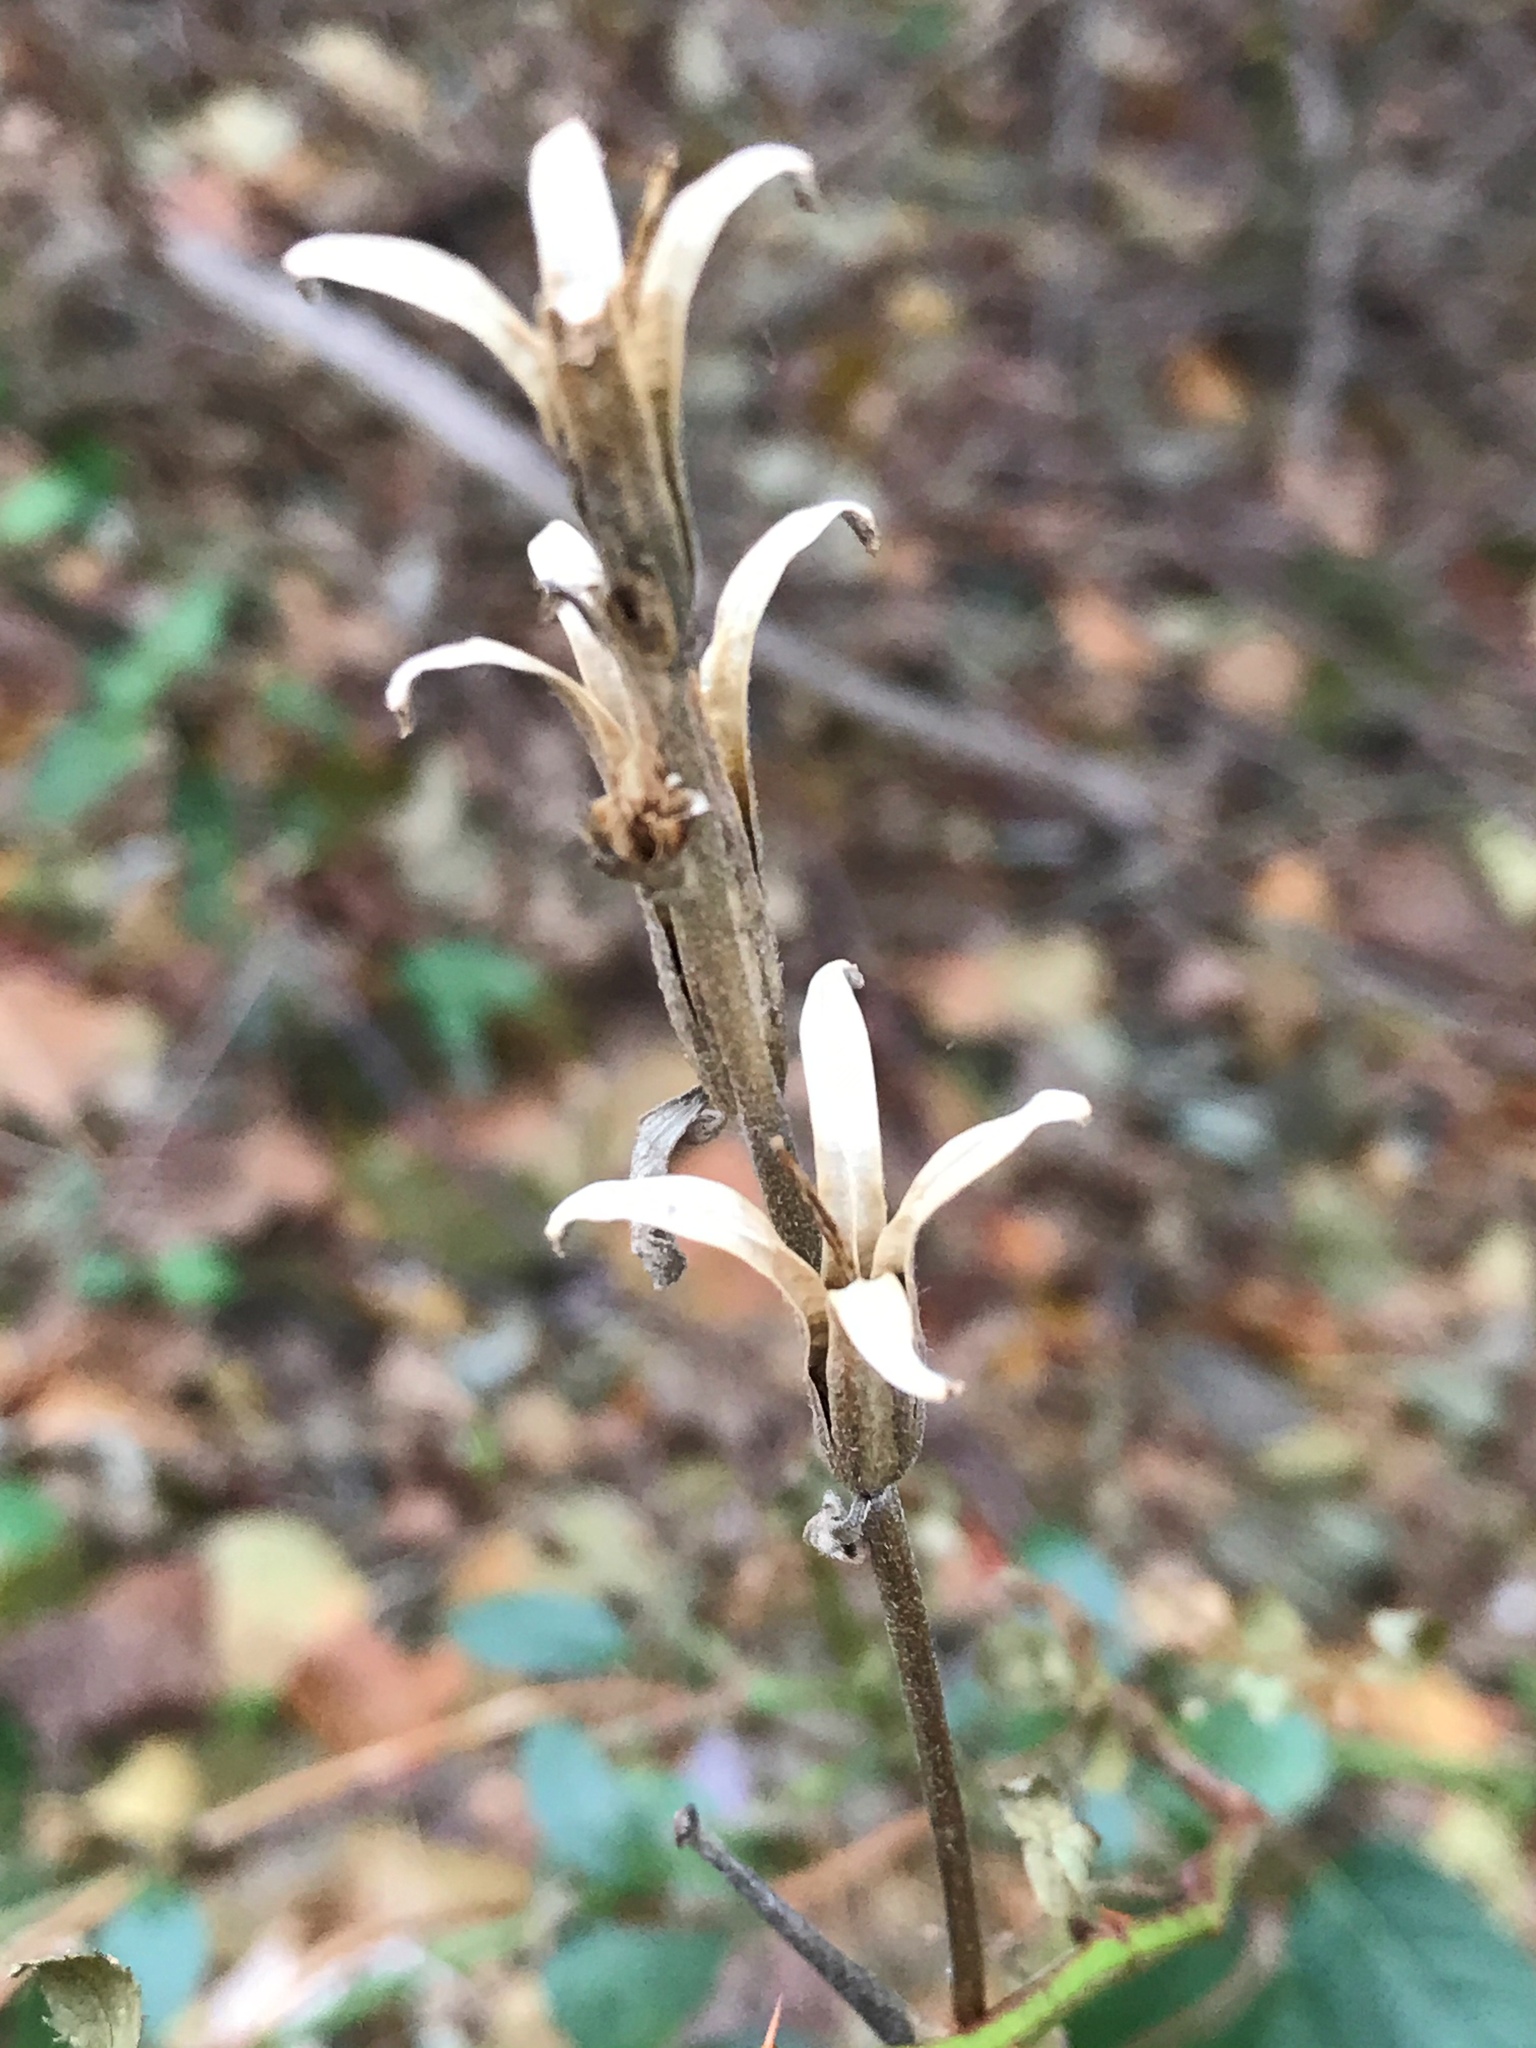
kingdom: Plantae
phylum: Tracheophyta
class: Magnoliopsida
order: Myrtales
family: Onagraceae
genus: Oenothera
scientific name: Oenothera biennis
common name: Common evening-primrose
